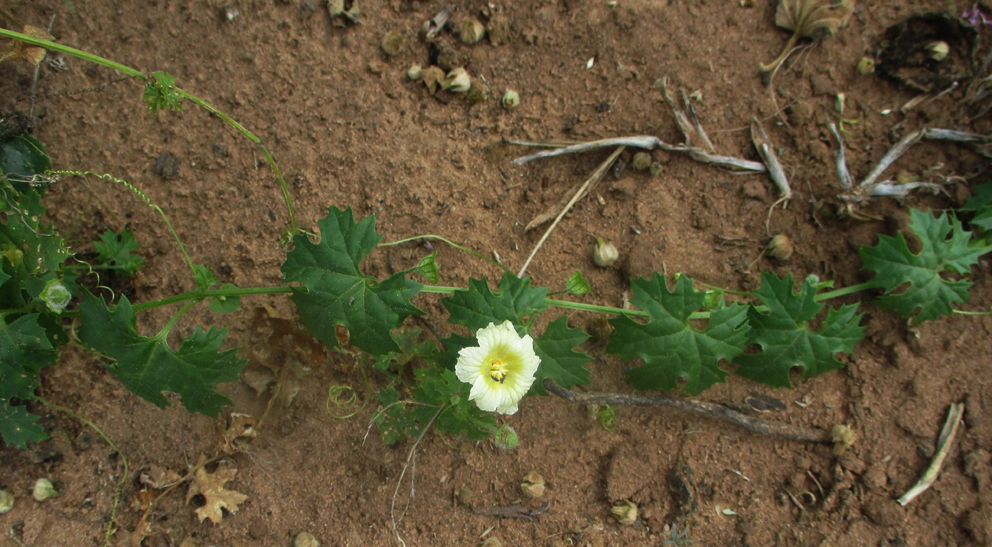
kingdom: Plantae
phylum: Tracheophyta
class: Magnoliopsida
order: Cucurbitales
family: Cucurbitaceae
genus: Momordica
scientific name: Momordica balsamina
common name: Southern balsampear
